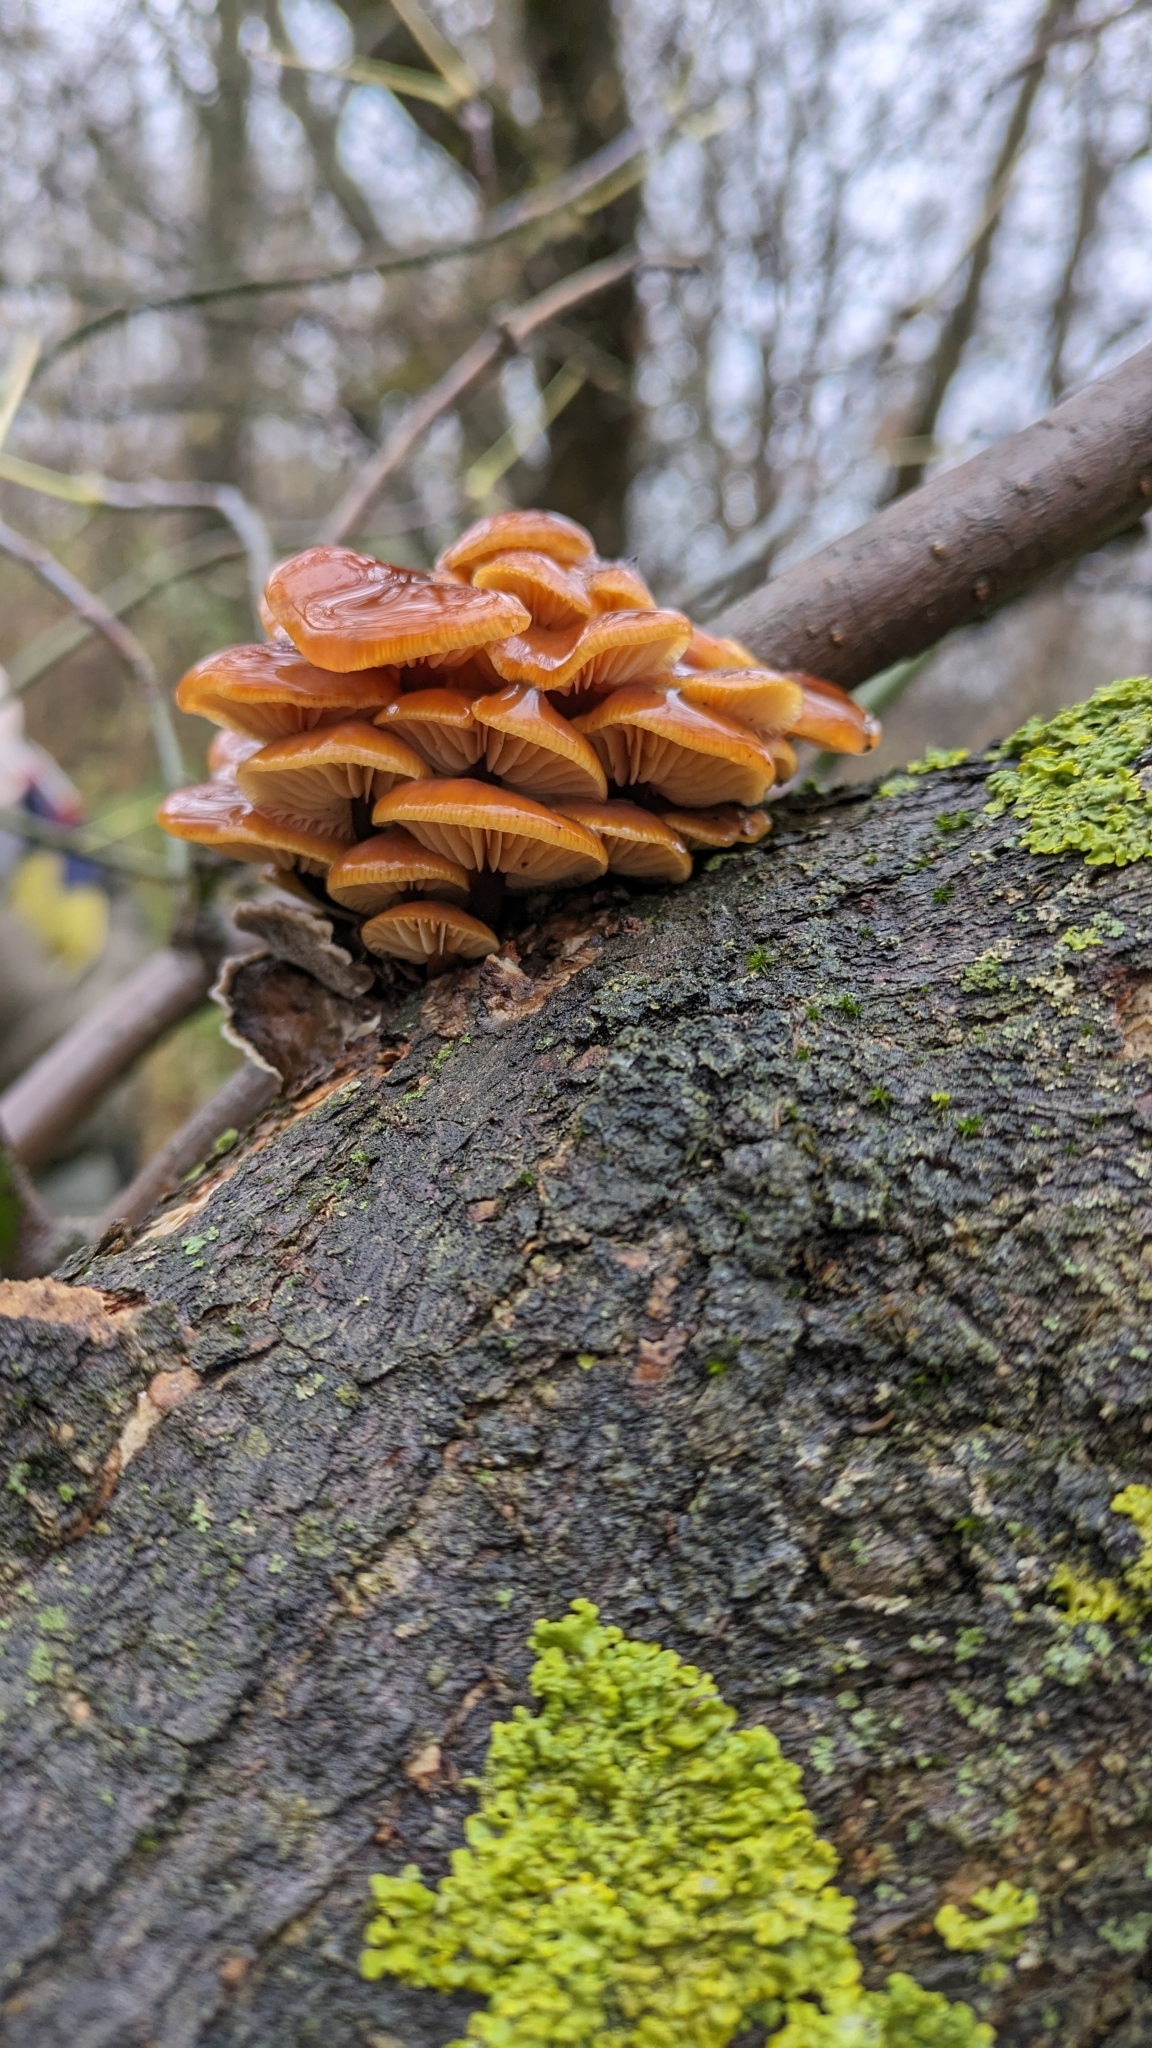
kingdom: Fungi
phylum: Basidiomycota
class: Agaricomycetes
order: Agaricales
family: Physalacriaceae
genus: Flammulina
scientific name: Flammulina
